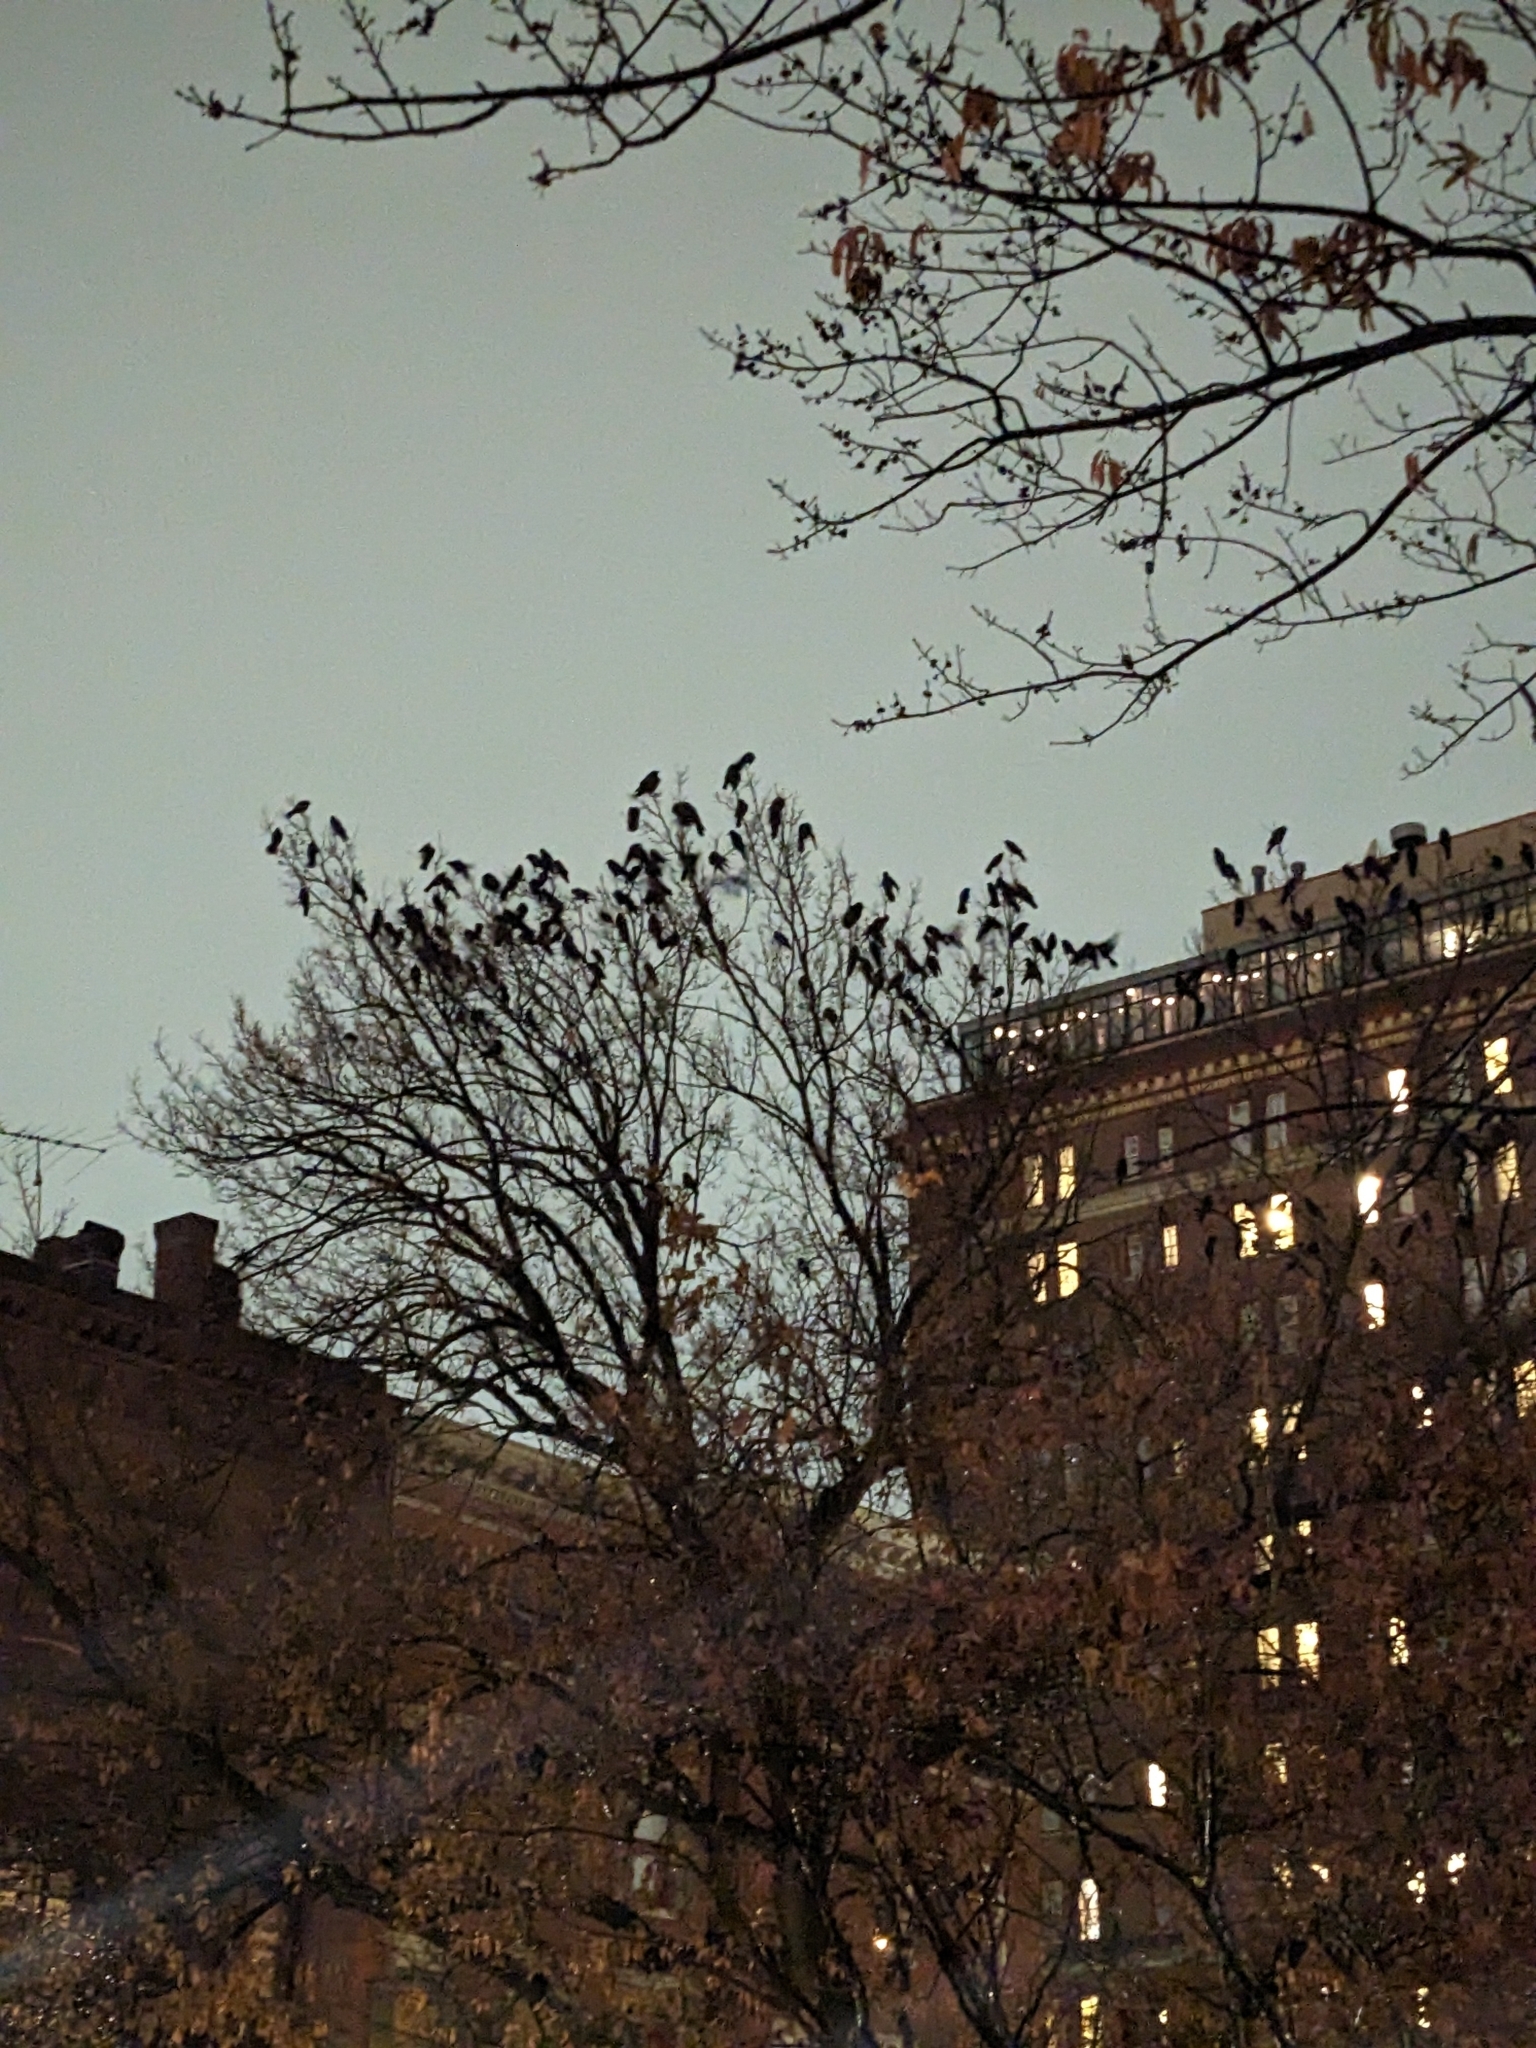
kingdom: Animalia
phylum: Chordata
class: Aves
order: Passeriformes
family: Corvidae
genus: Corvus
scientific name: Corvus ossifragus
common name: Fish crow
